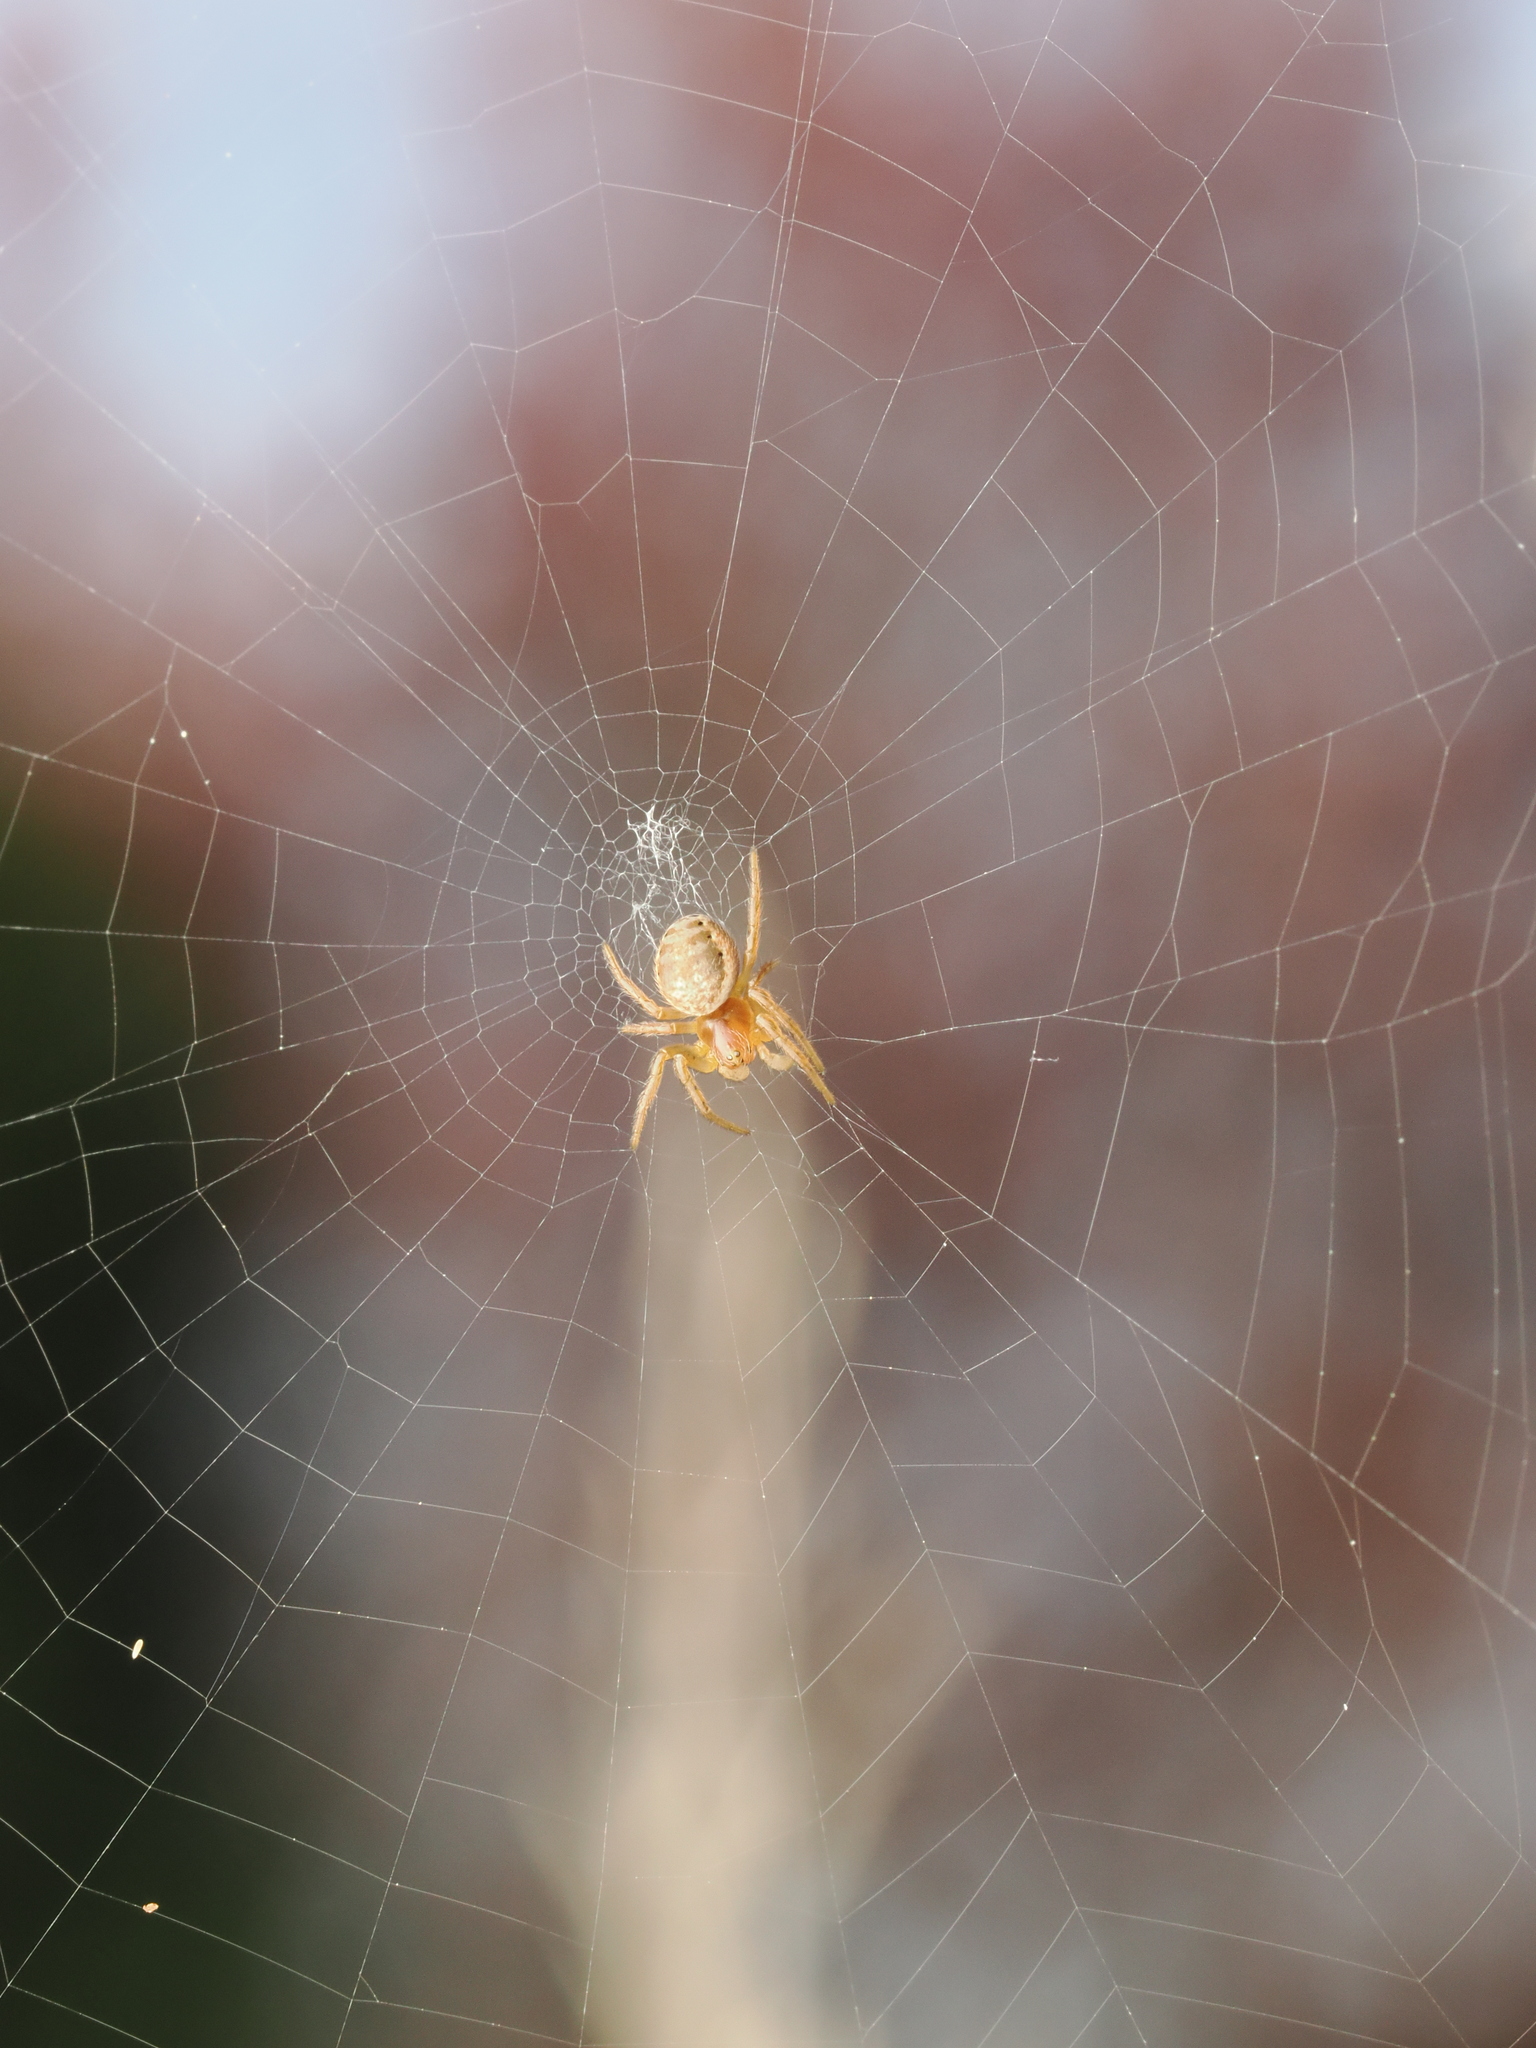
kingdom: Animalia
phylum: Arthropoda
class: Arachnida
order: Araneae
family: Araneidae
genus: Araniella
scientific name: Araniella
